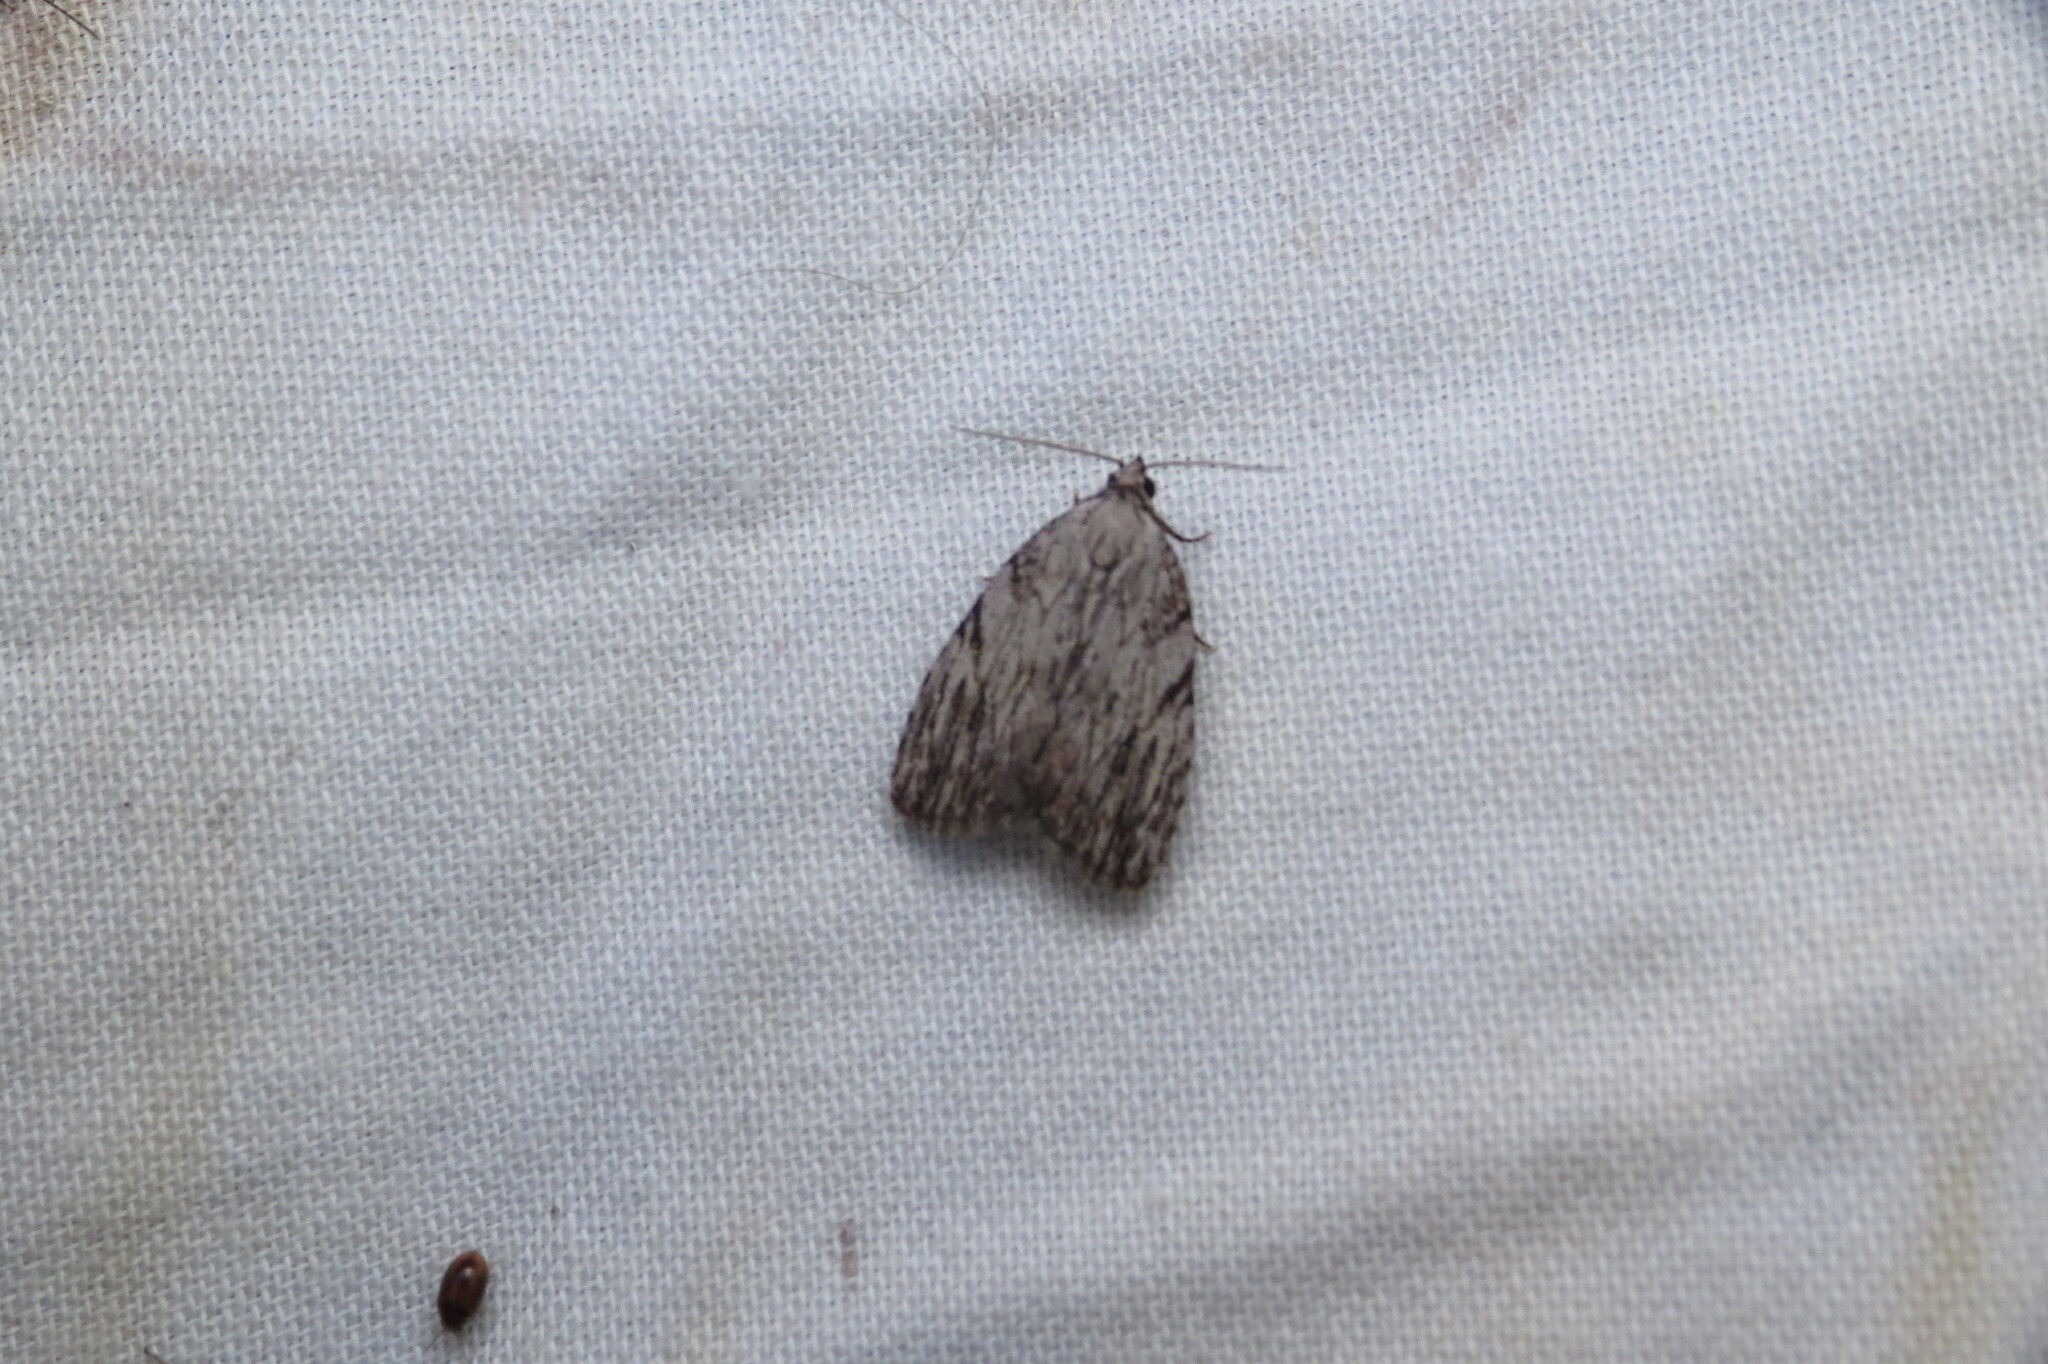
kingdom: Animalia
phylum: Arthropoda
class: Insecta
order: Lepidoptera
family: Noctuidae
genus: Balsa
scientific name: Balsa tristrigella
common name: Three-lined balsa moth
